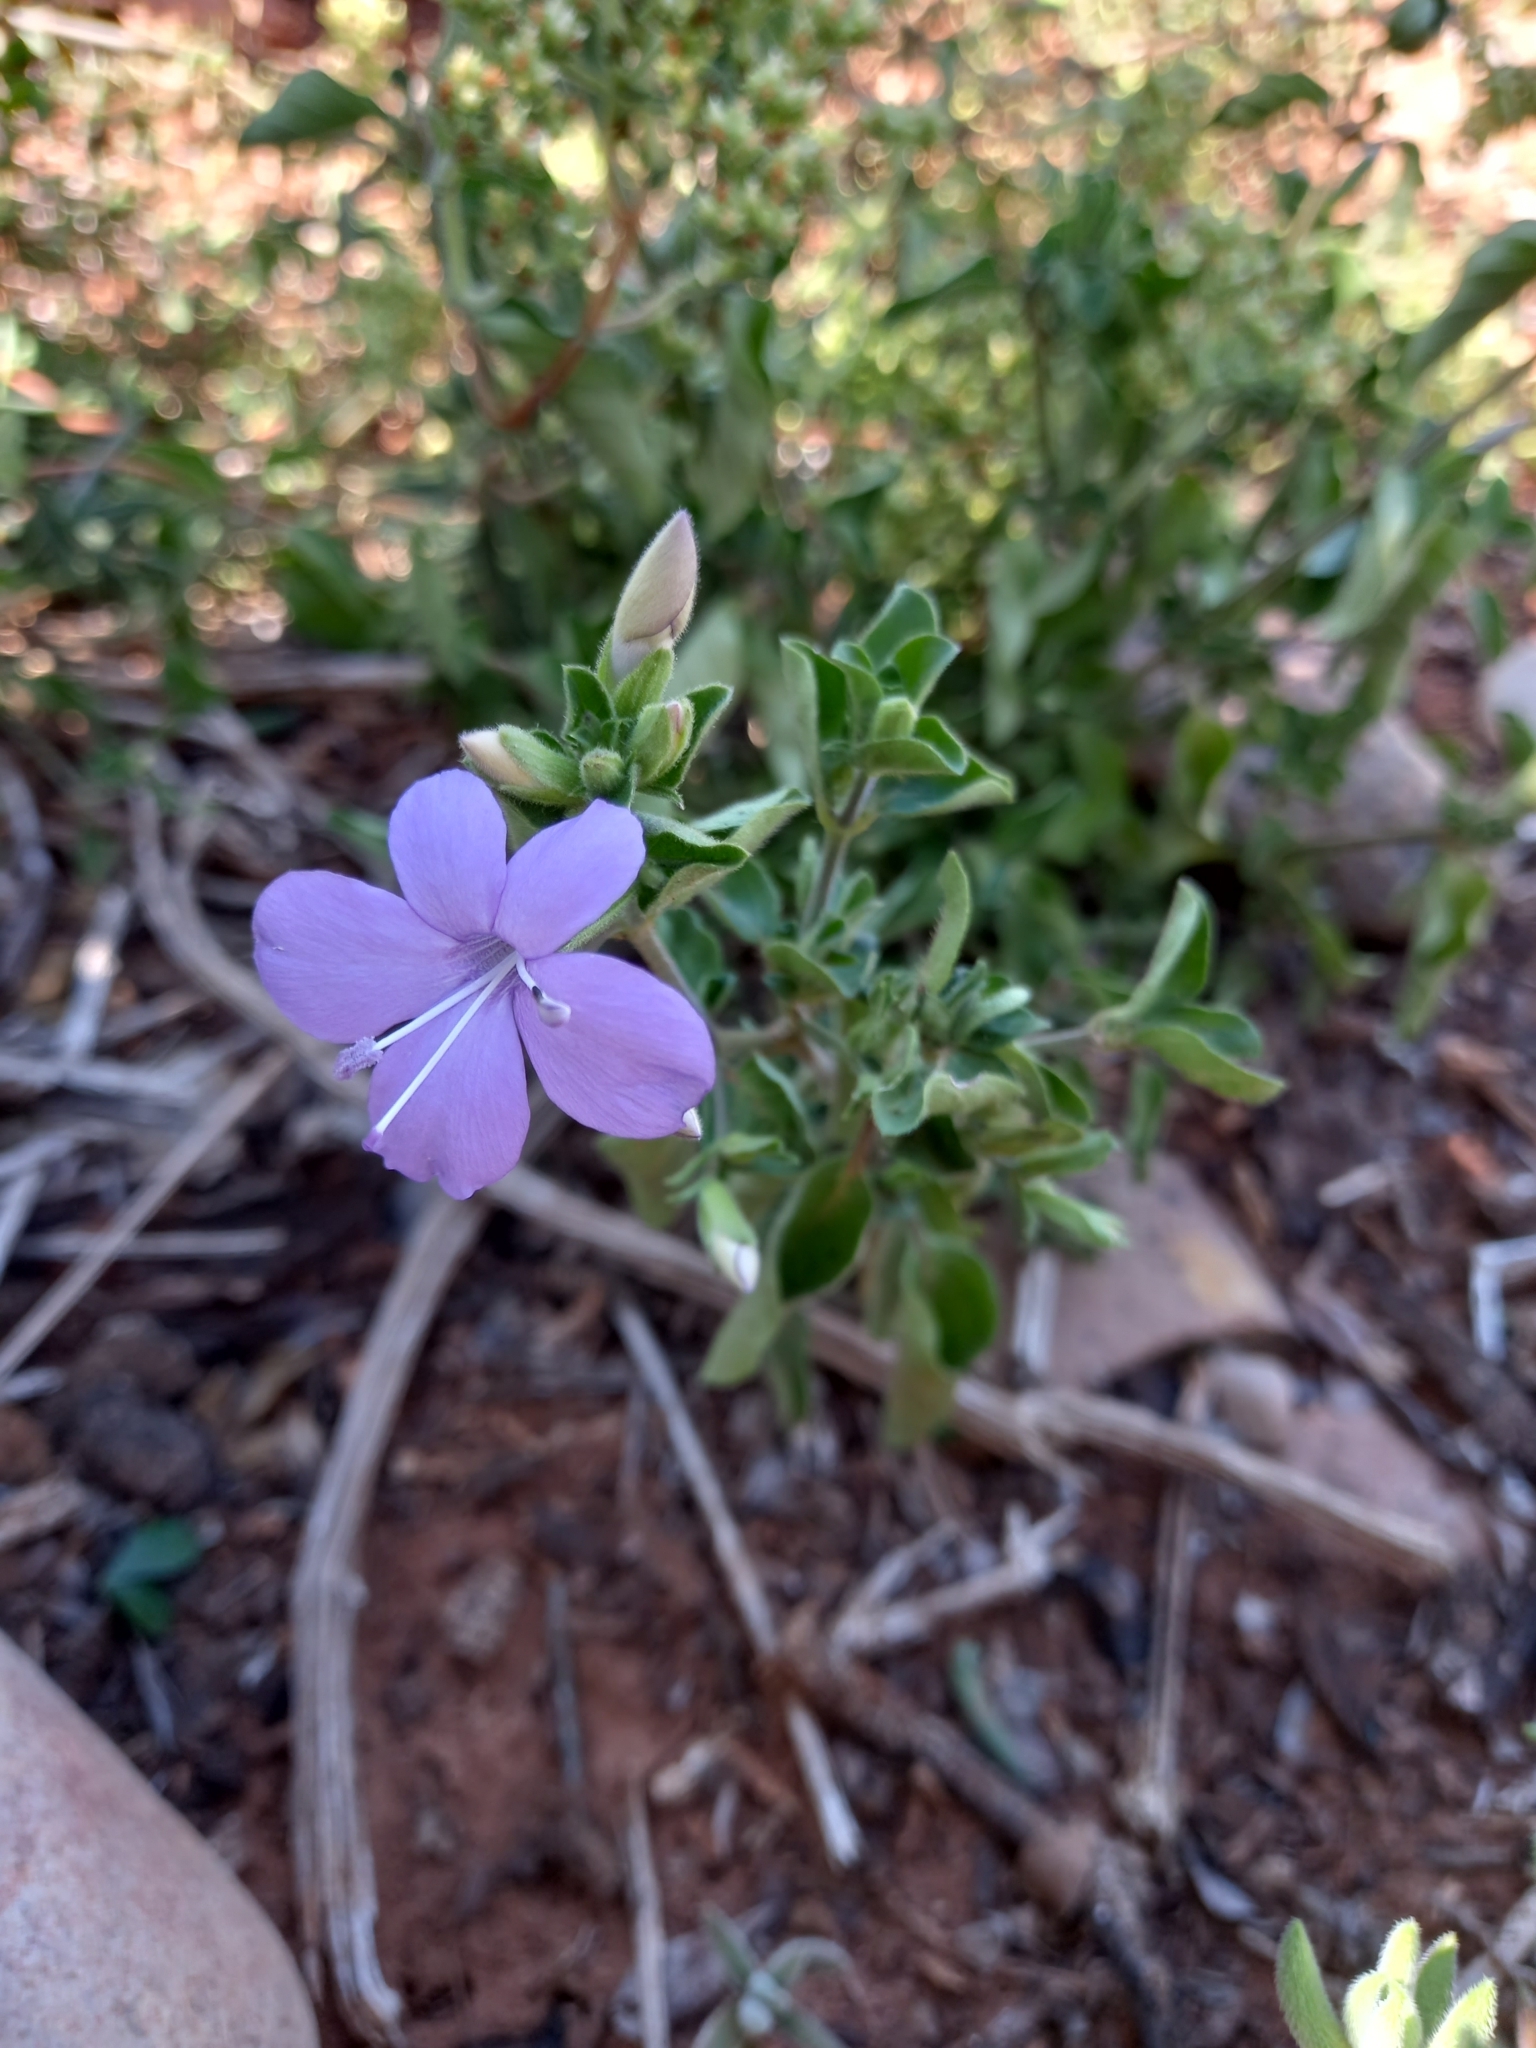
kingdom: Plantae
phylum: Tracheophyta
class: Magnoliopsida
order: Lamiales
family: Acanthaceae
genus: Barleria
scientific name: Barleria obtusa
